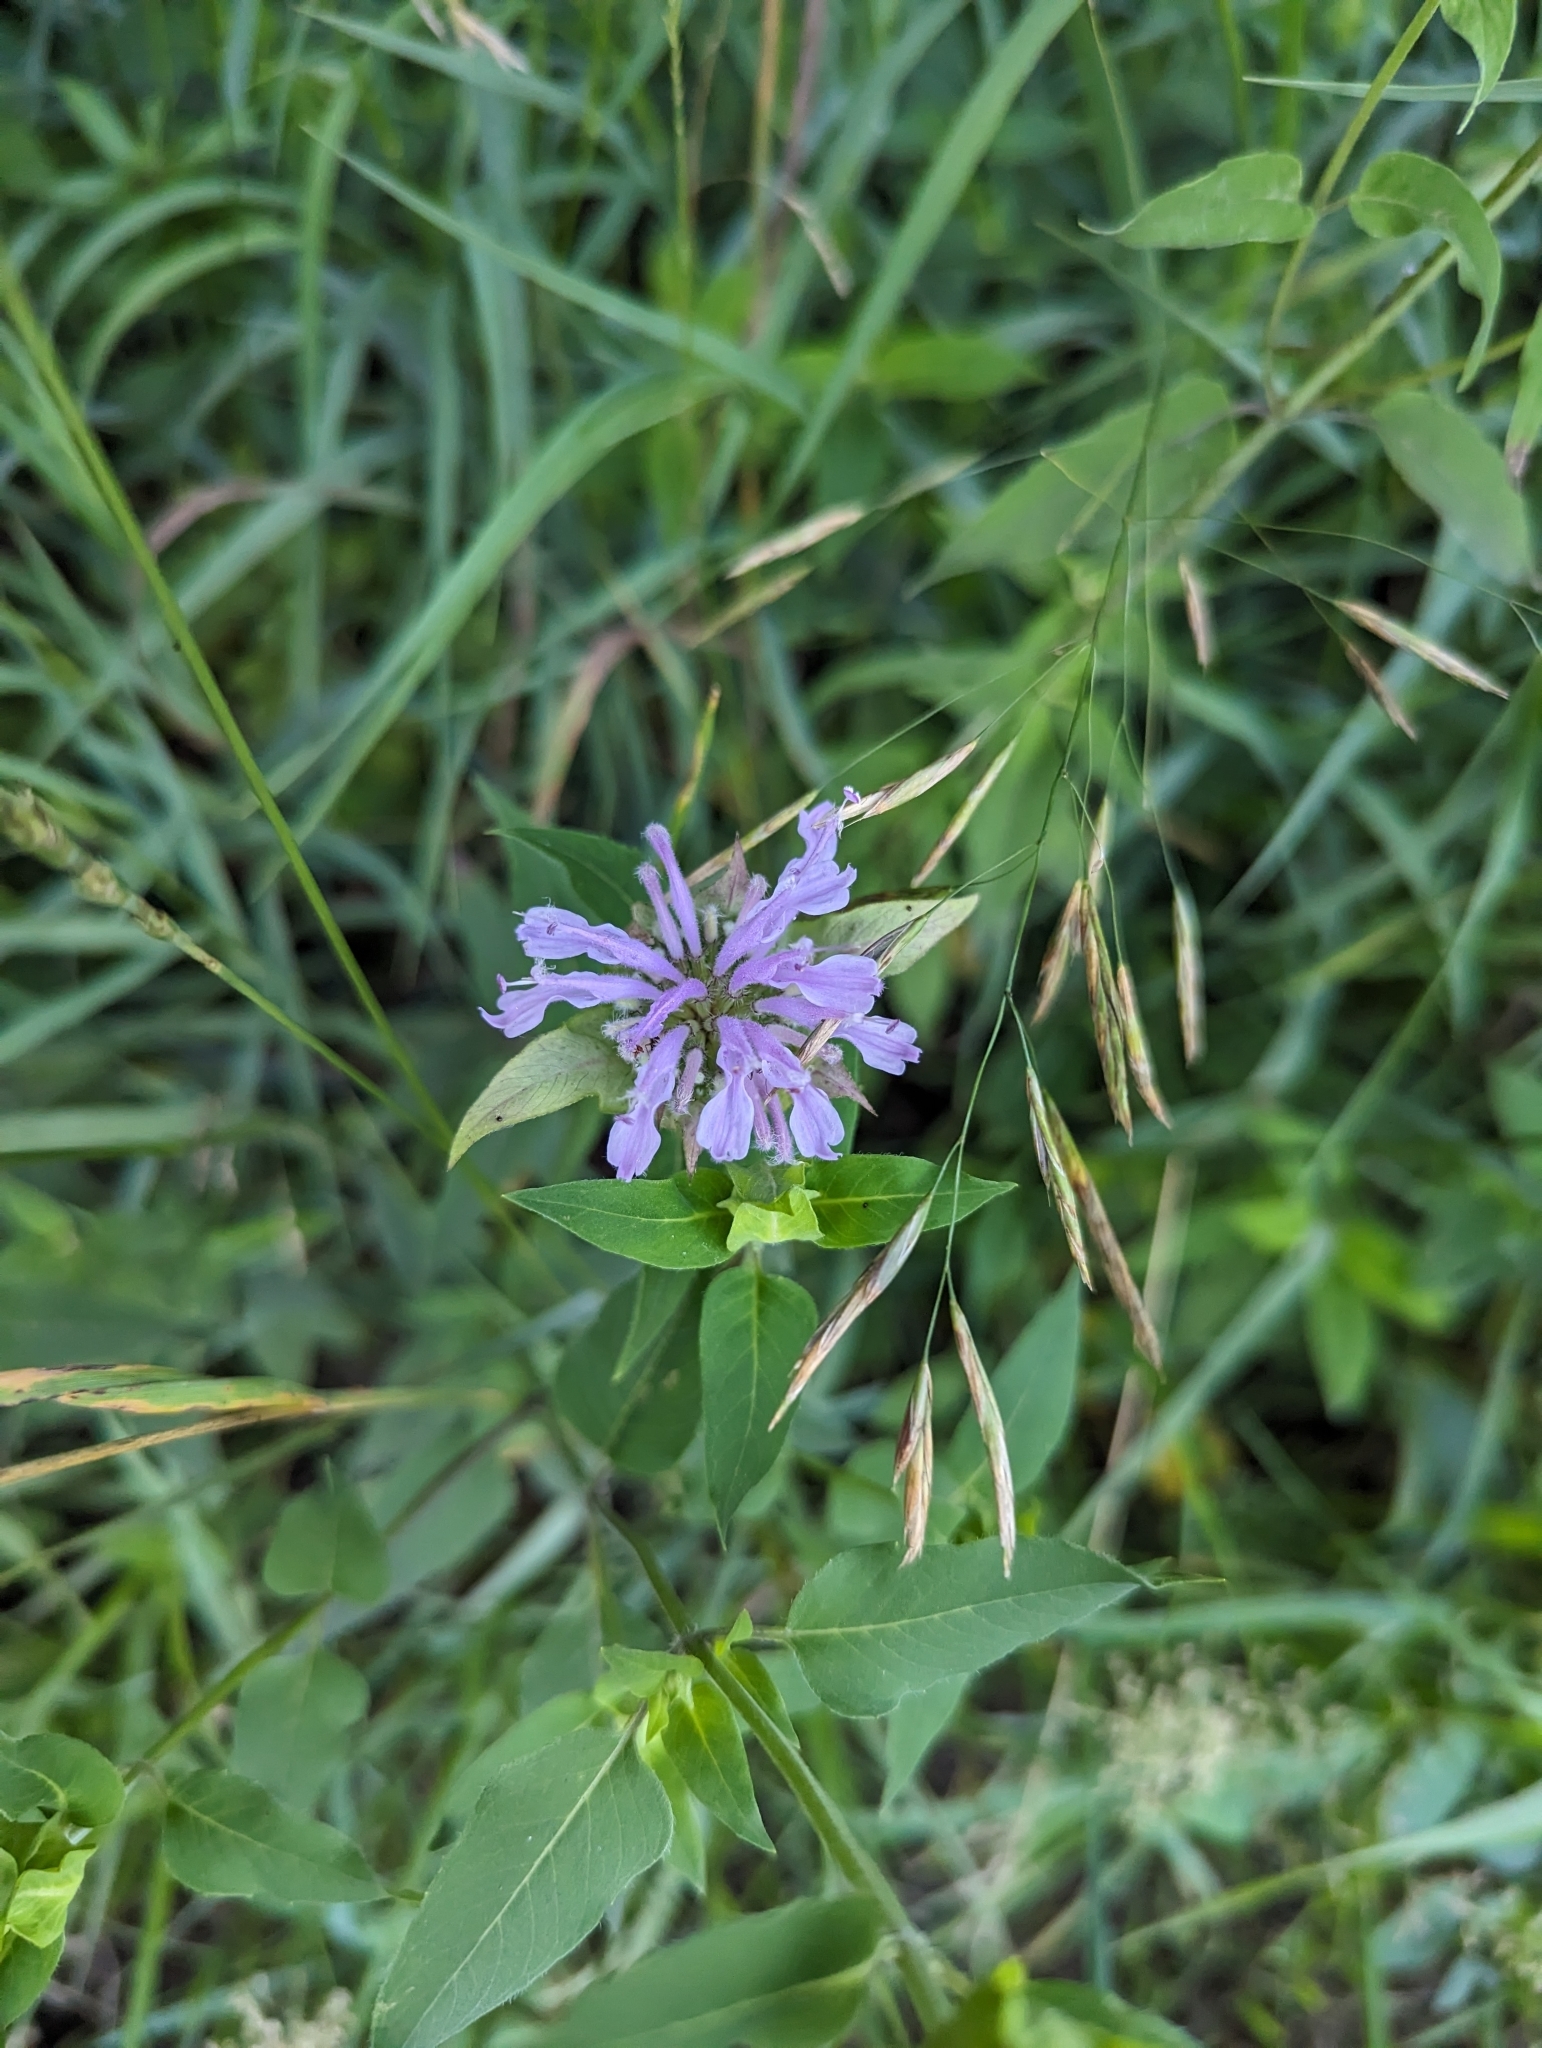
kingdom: Plantae
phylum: Tracheophyta
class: Magnoliopsida
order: Lamiales
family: Lamiaceae
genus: Monarda
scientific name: Monarda fistulosa
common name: Purple beebalm
